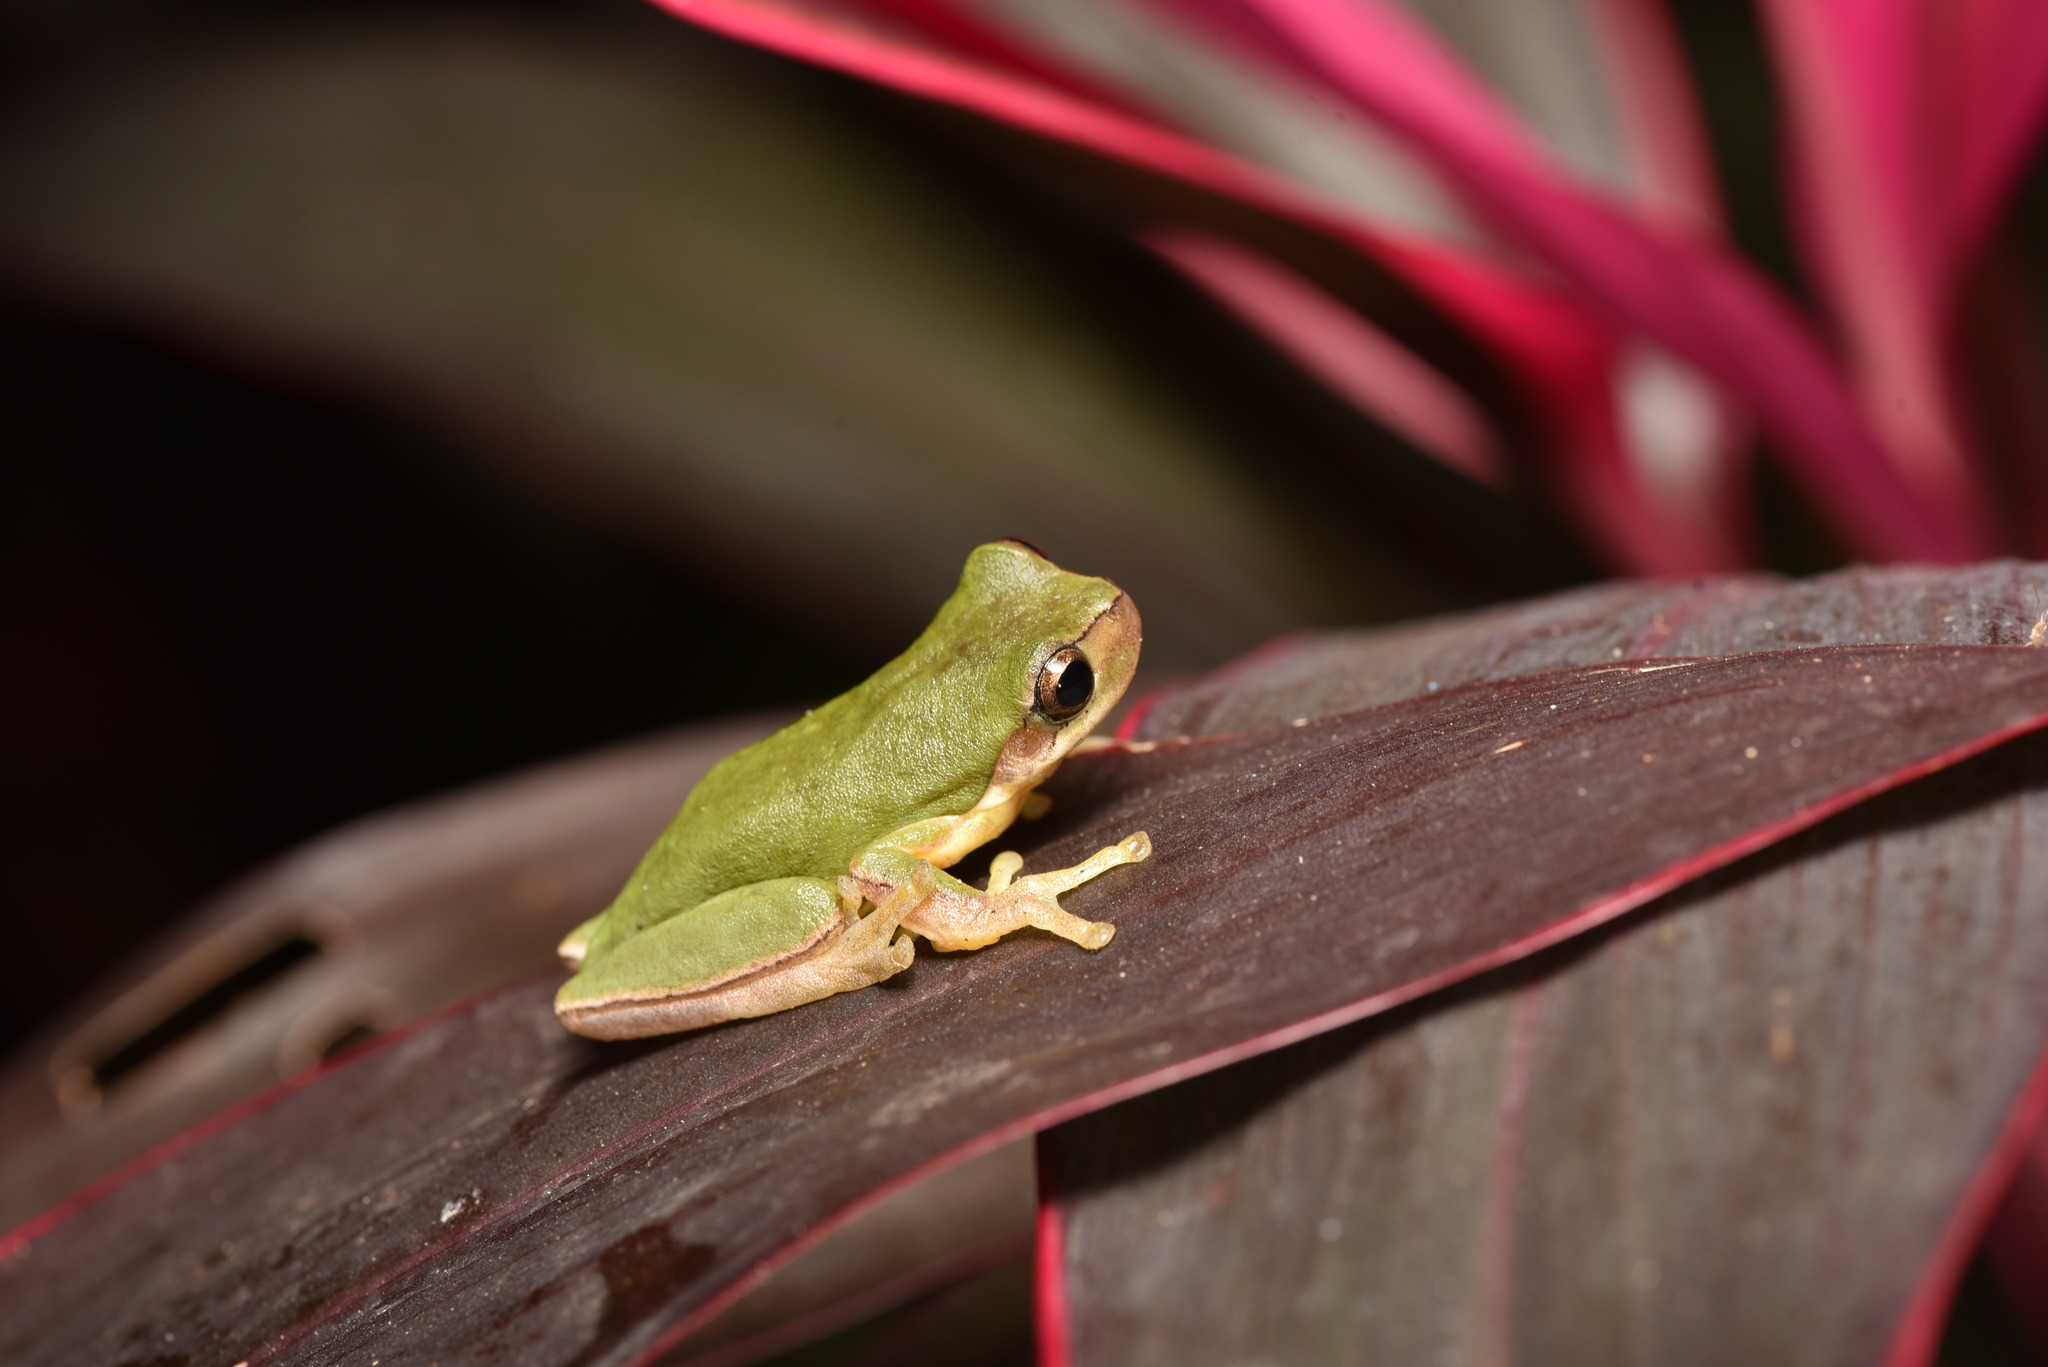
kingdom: Animalia
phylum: Chordata
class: Amphibia
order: Anura
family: Hylidae
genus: Hyla
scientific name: Hyla chinensis
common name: Common chinese treefrog
